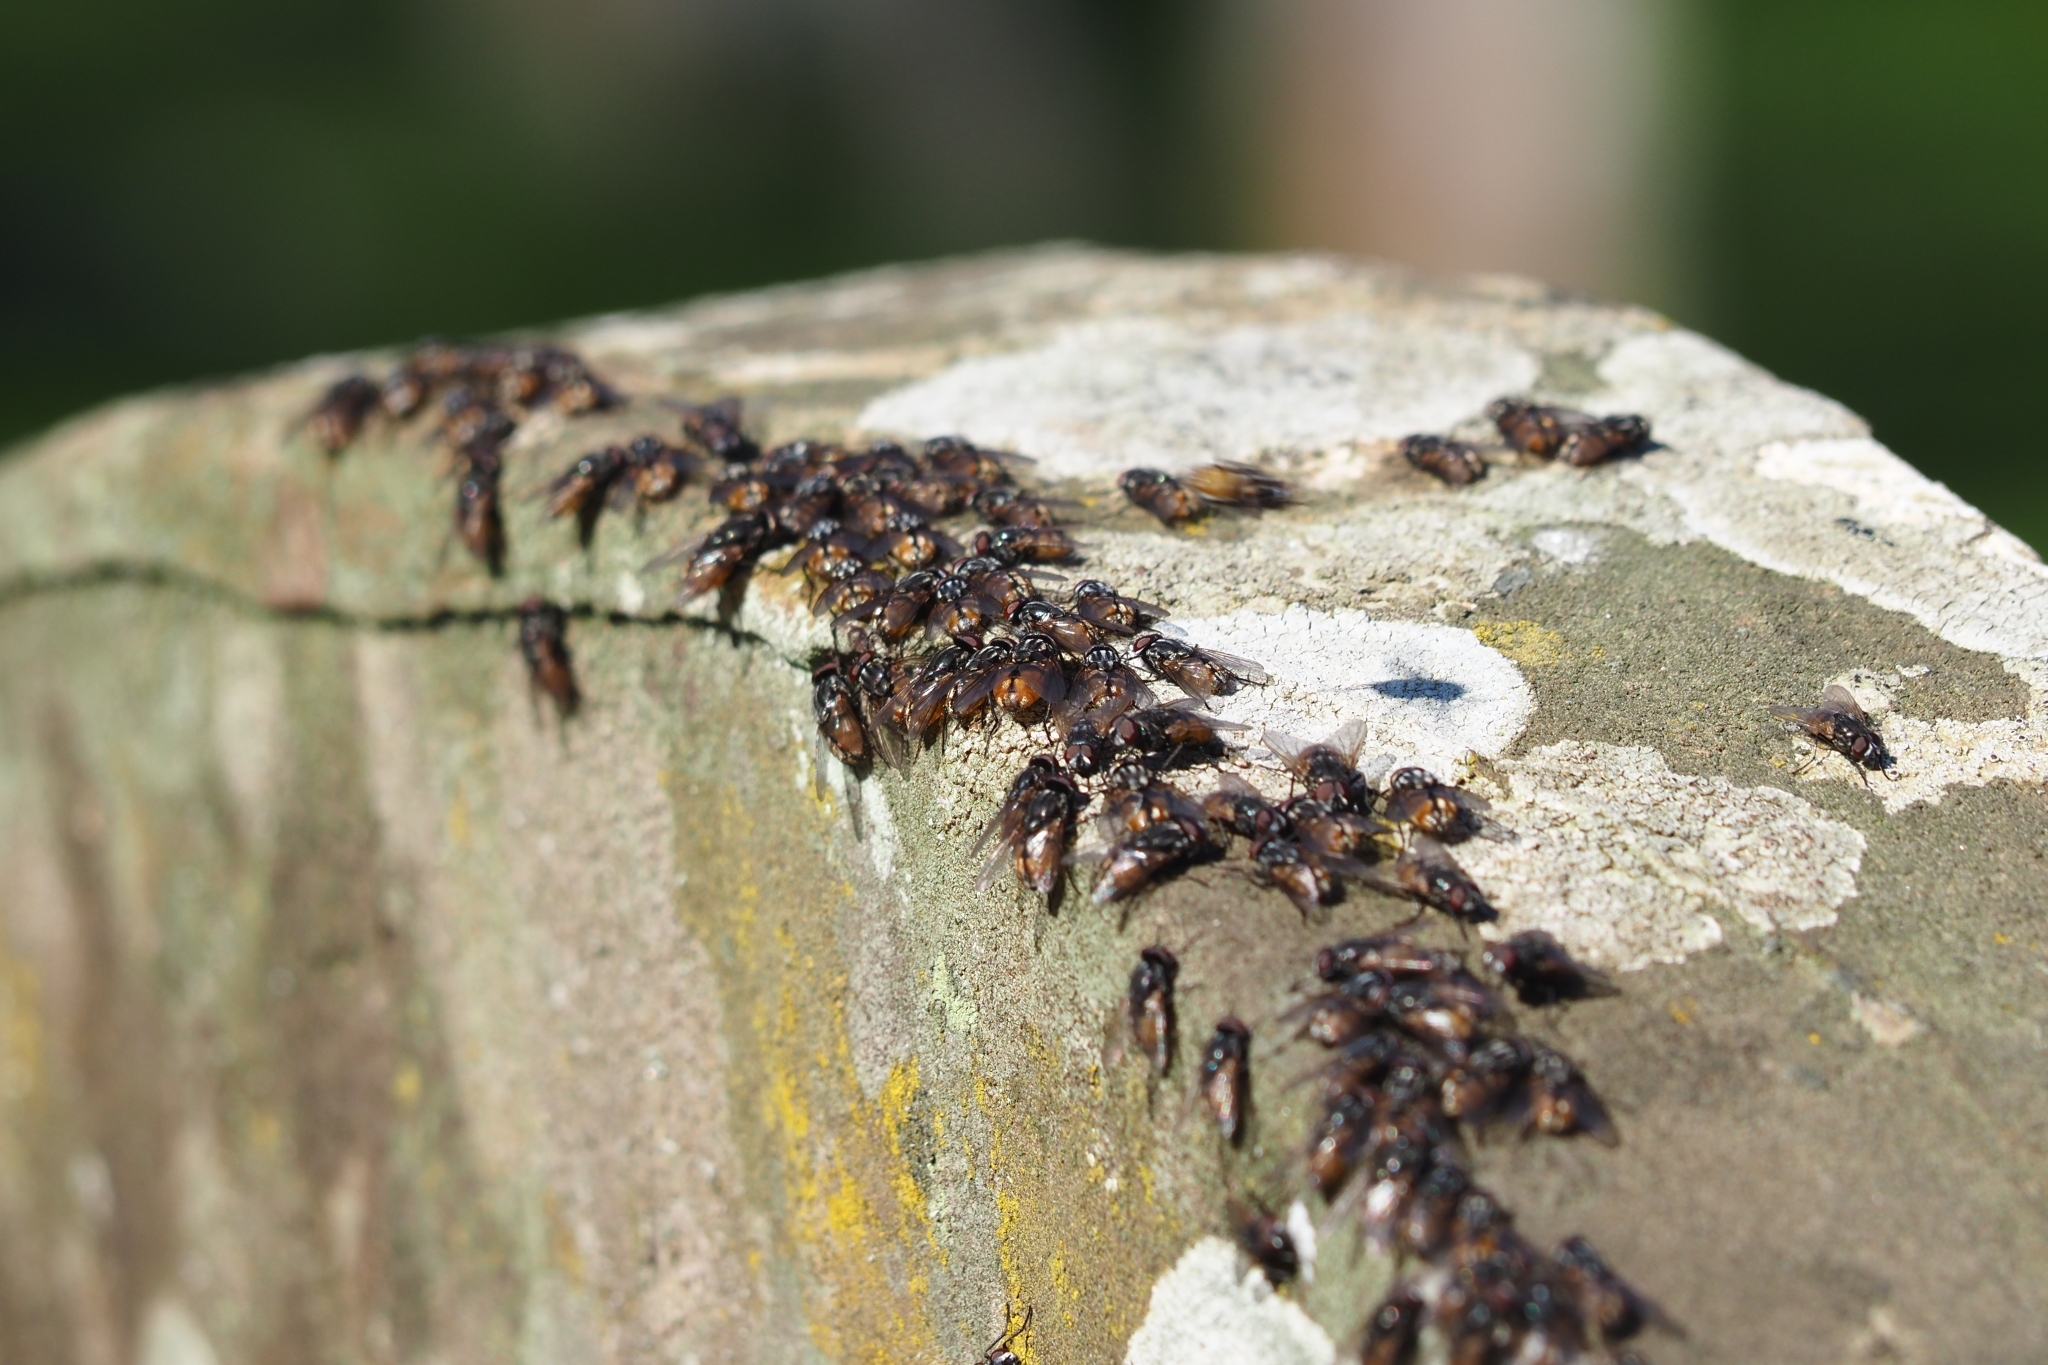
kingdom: Animalia
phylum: Arthropoda
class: Insecta
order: Diptera
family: Muscidae
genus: Musca
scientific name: Musca autumnalis
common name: Face fly
